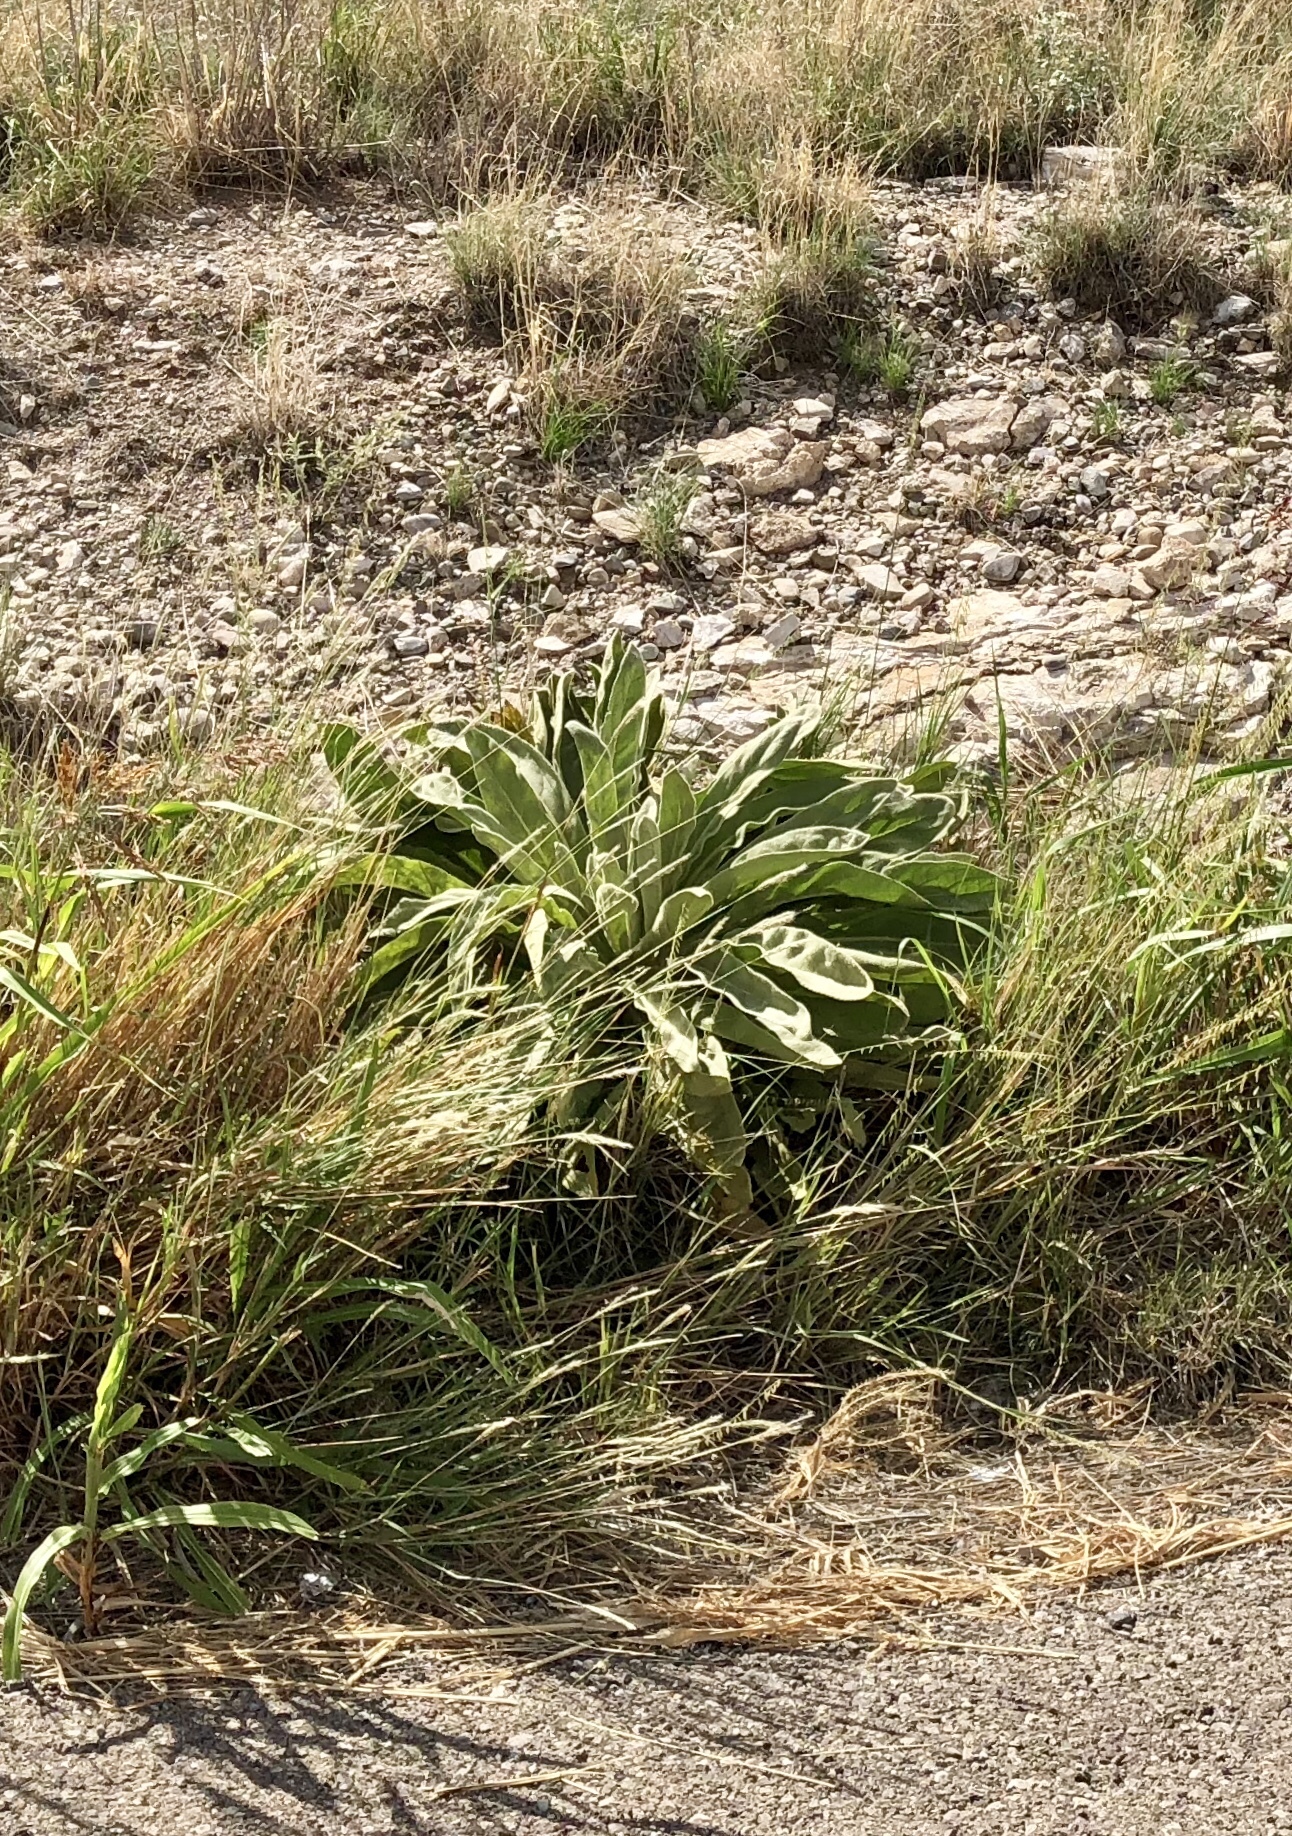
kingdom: Plantae
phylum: Tracheophyta
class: Magnoliopsida
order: Lamiales
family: Scrophulariaceae
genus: Verbascum
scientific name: Verbascum thapsus
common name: Common mullein
